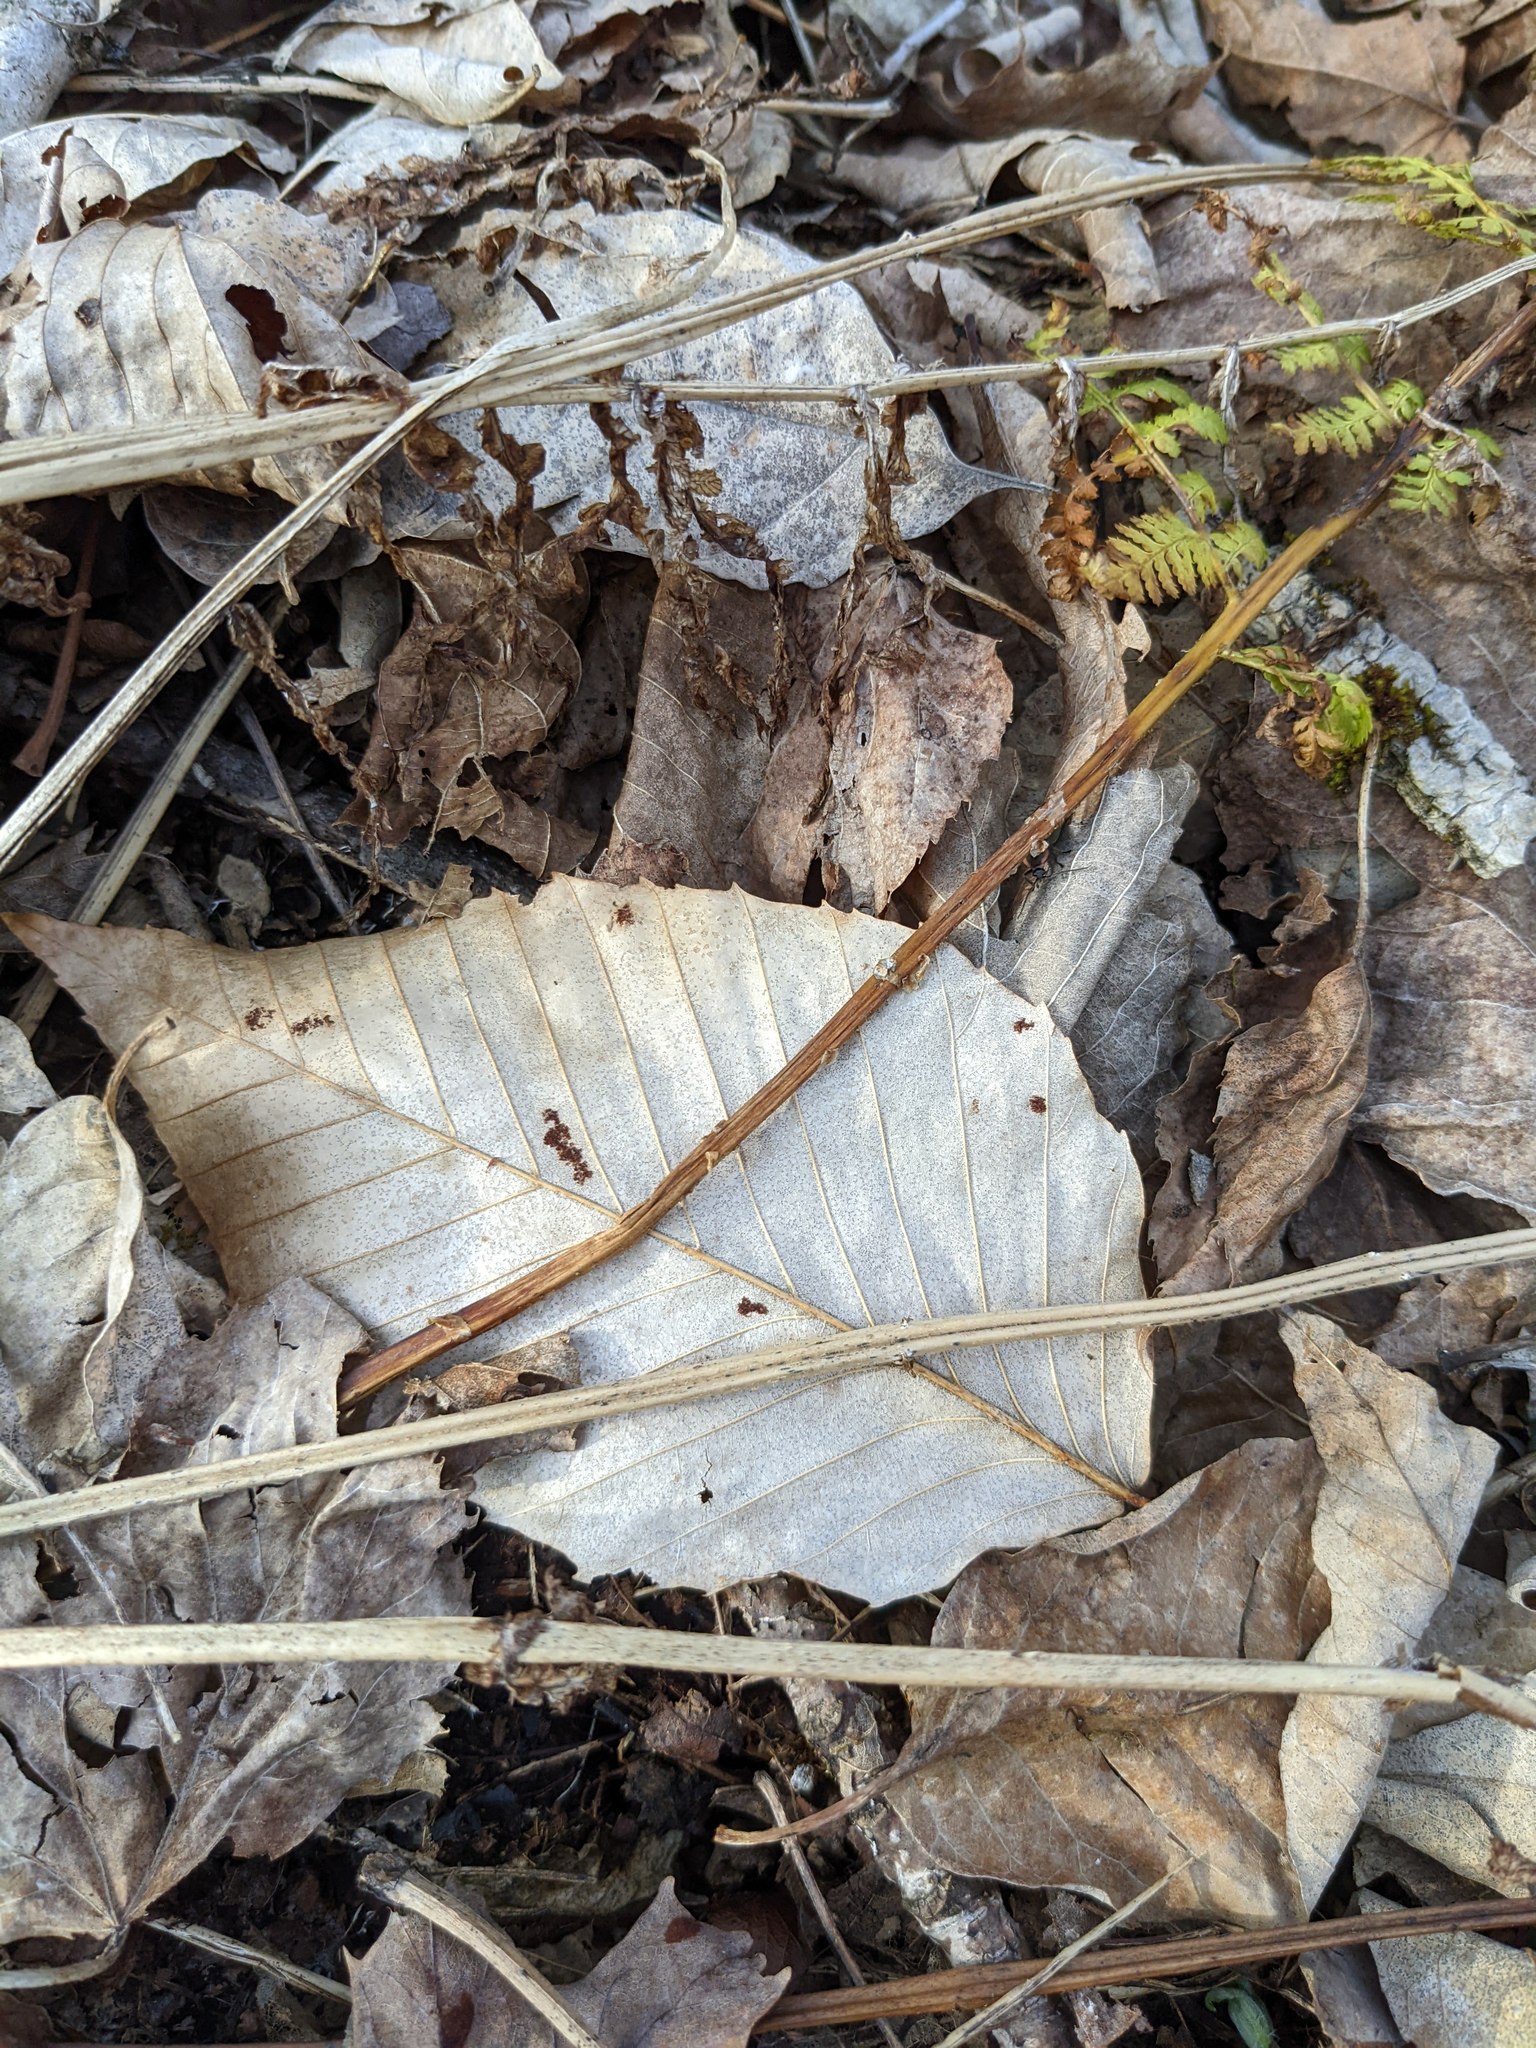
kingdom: Plantae
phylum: Tracheophyta
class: Magnoliopsida
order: Fagales
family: Fagaceae
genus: Fagus
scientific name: Fagus grandifolia
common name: American beech
